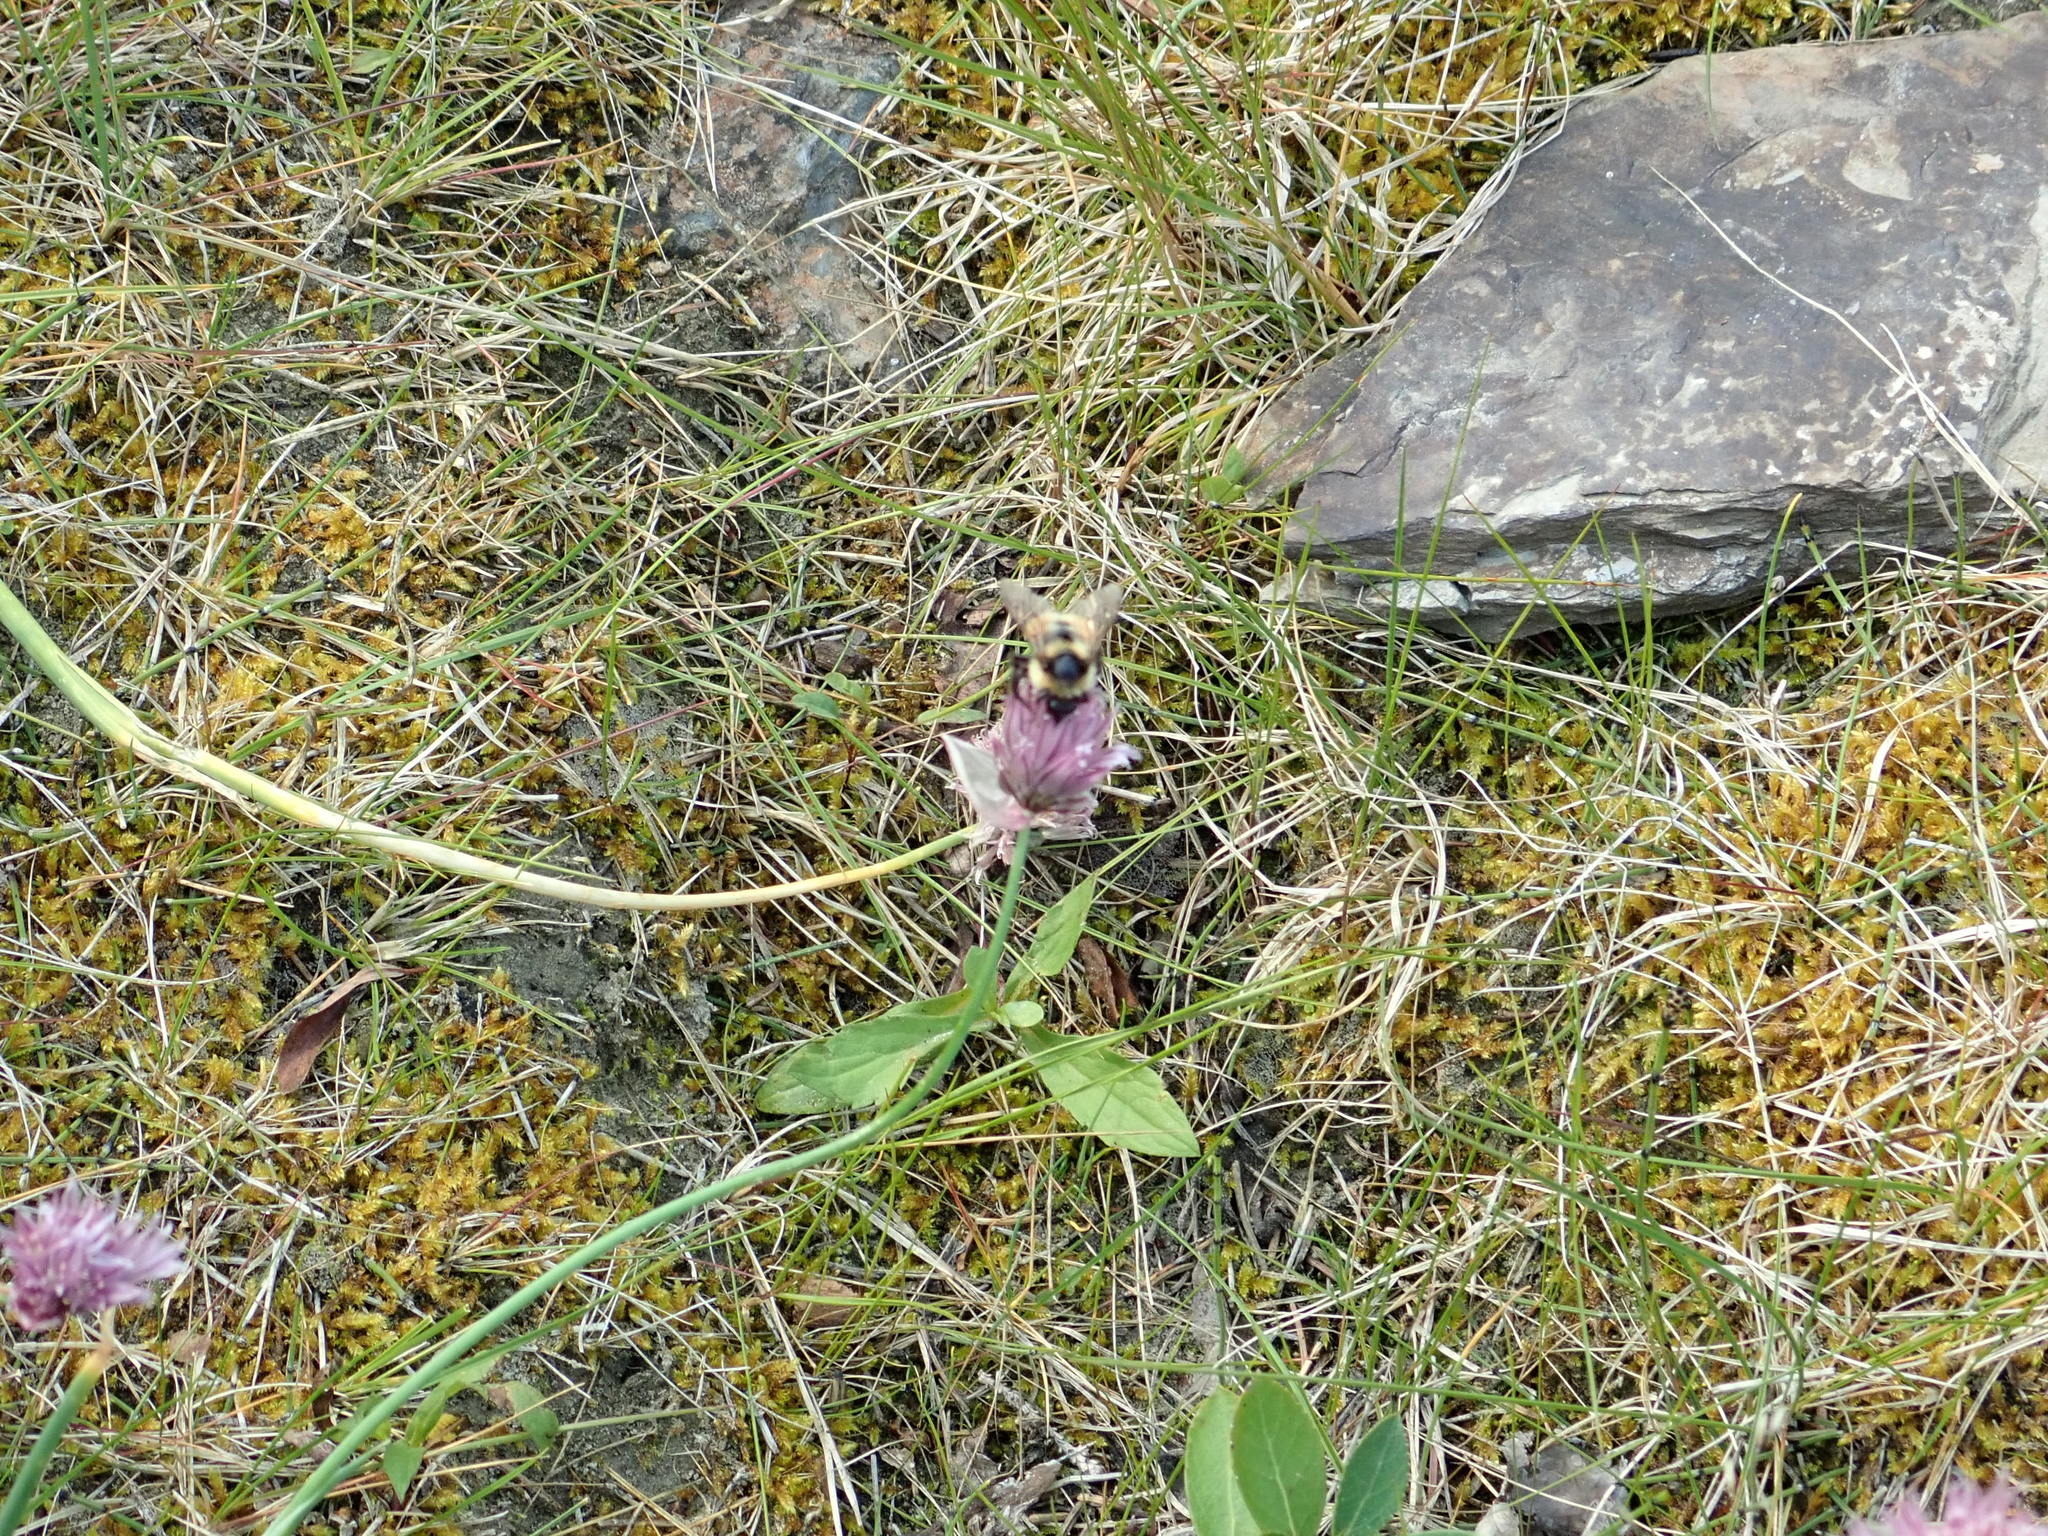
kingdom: Animalia
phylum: Arthropoda
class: Insecta
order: Hymenoptera
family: Apidae
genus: Bombus
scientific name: Bombus jonellus
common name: Heath humble-bee
